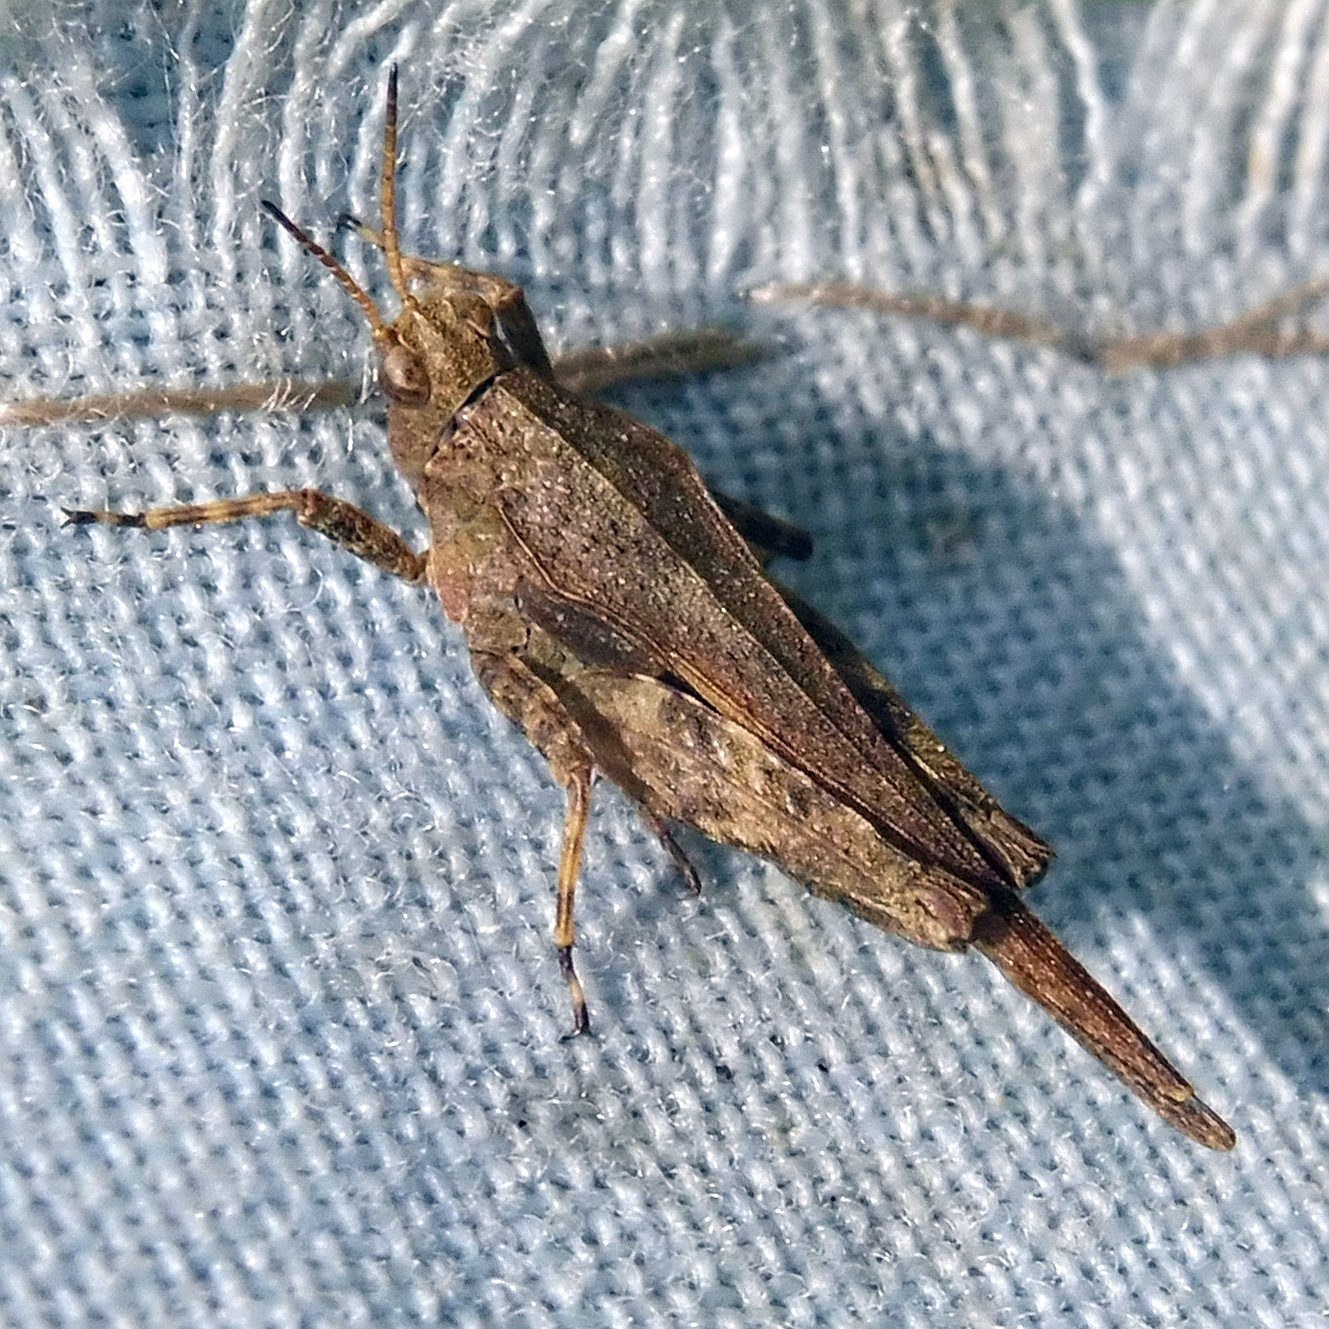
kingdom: Animalia
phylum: Arthropoda
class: Insecta
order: Orthoptera
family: Tetrigidae
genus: Tetrix
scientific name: Tetrix subulata
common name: Slender ground-hopper
